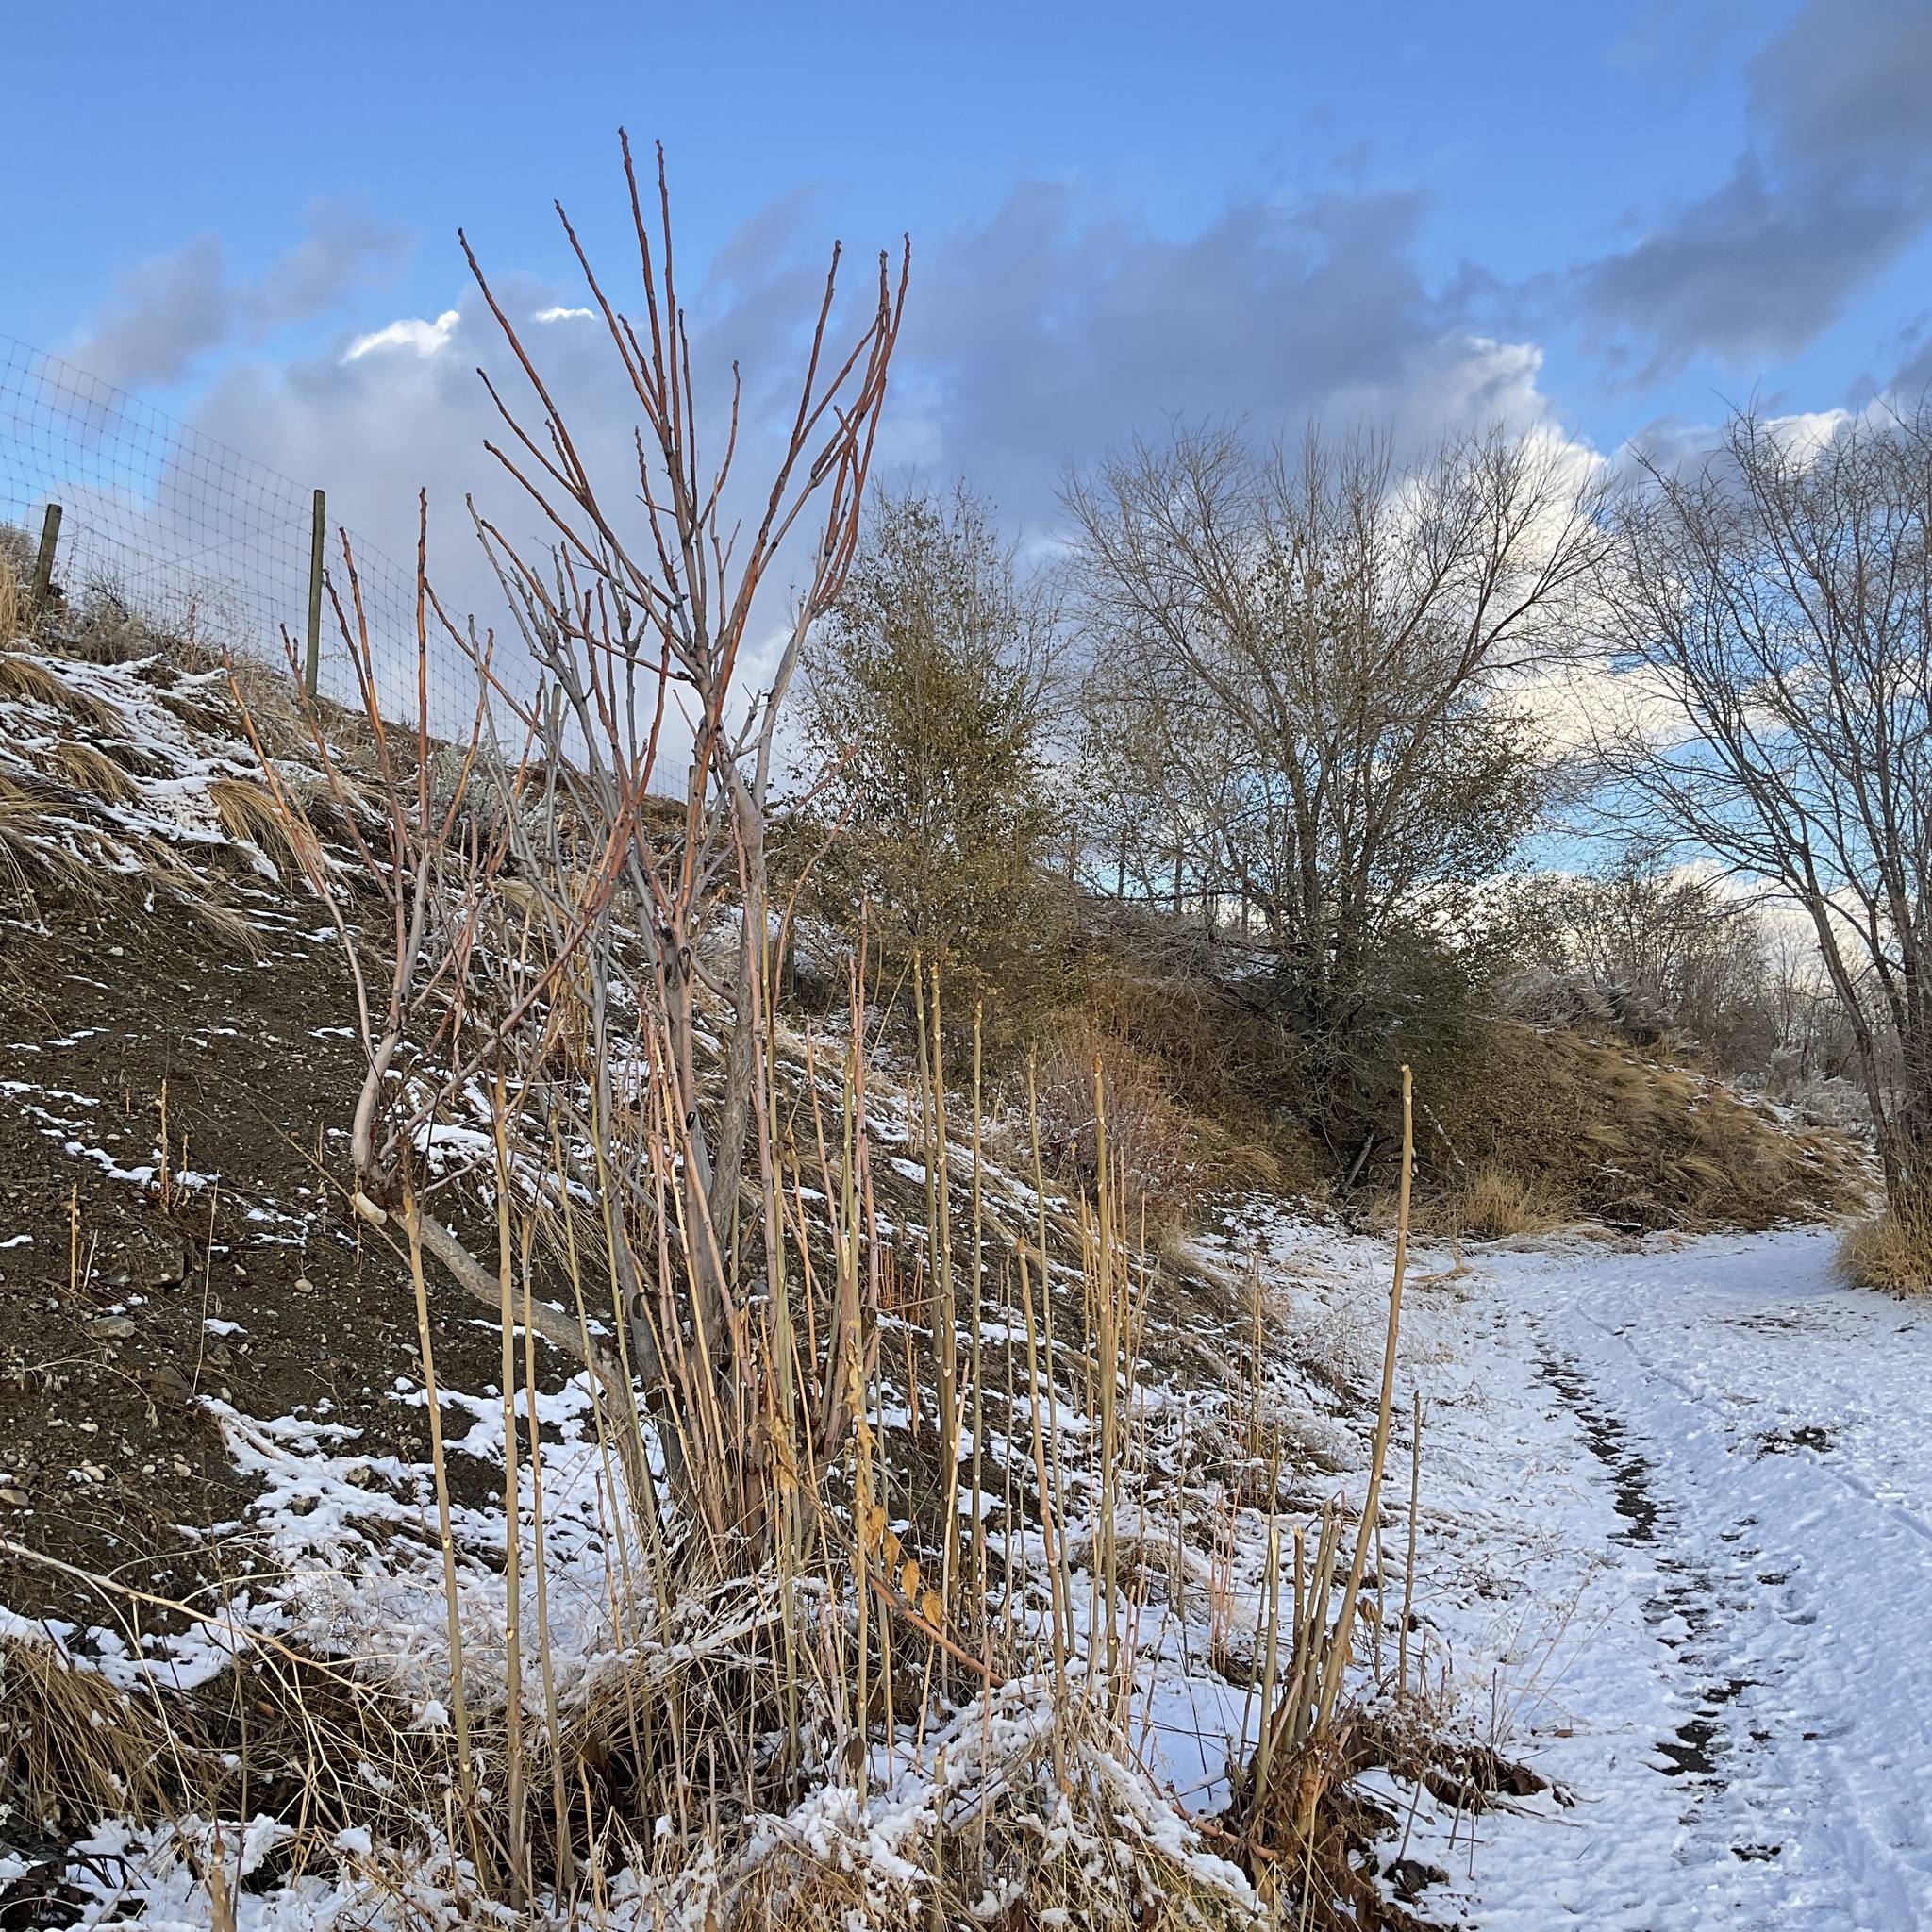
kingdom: Plantae
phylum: Tracheophyta
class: Magnoliopsida
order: Sapindales
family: Simaroubaceae
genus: Ailanthus
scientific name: Ailanthus altissima
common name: Tree-of-heaven
